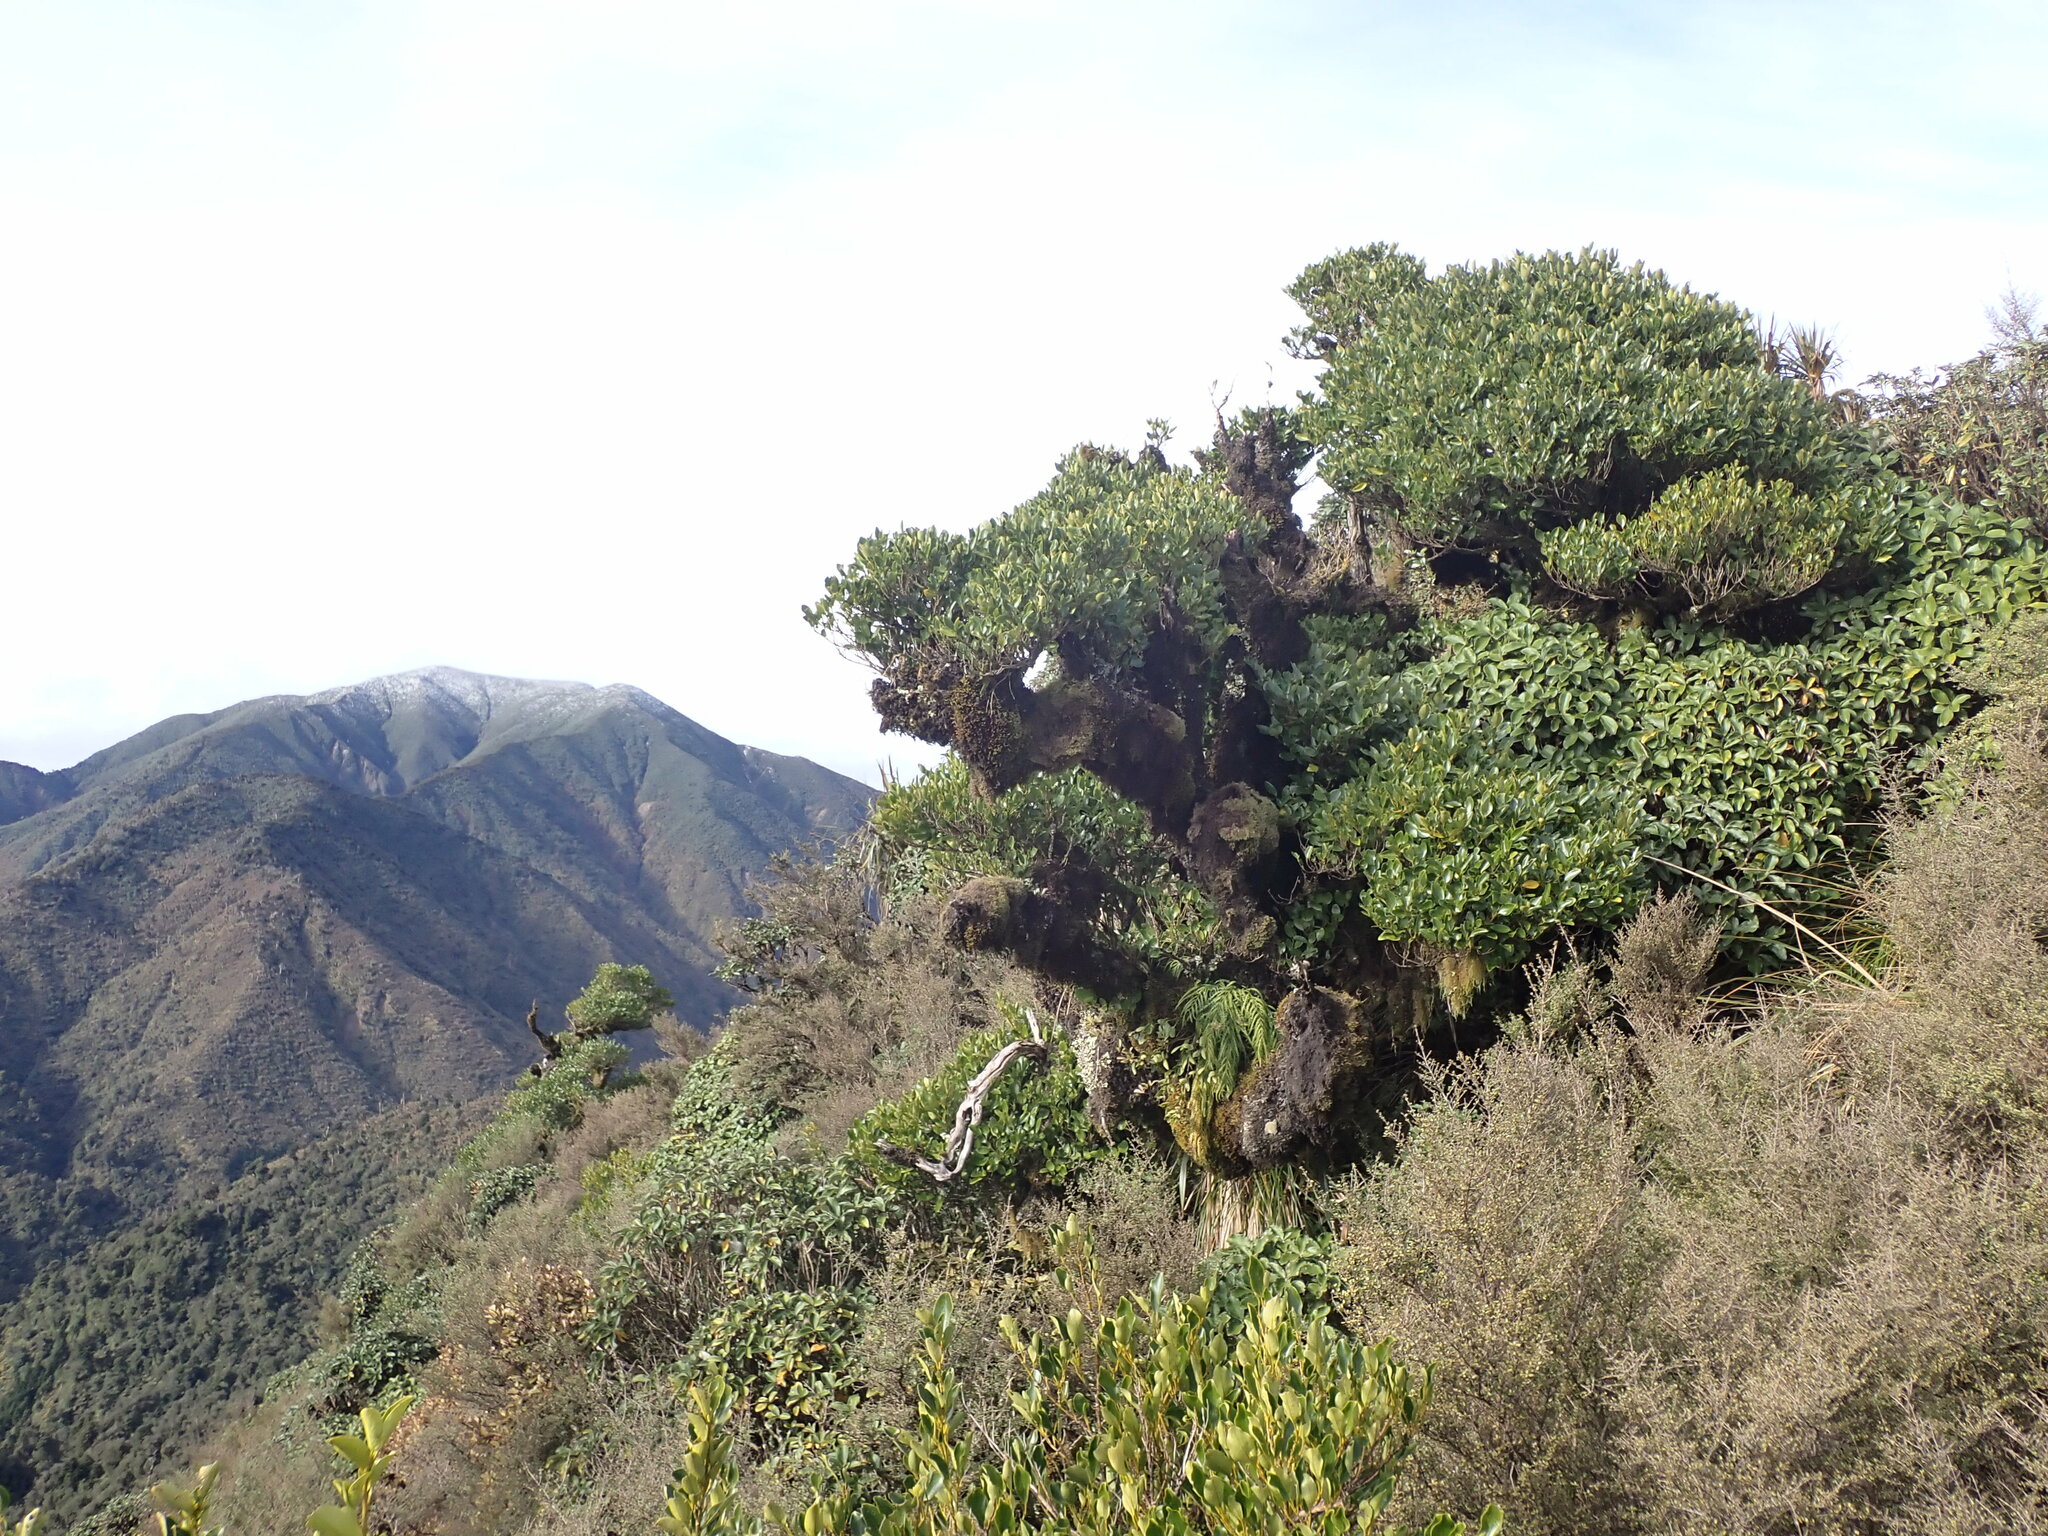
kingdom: Plantae
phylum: Tracheophyta
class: Magnoliopsida
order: Apiales
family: Griseliniaceae
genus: Griselinia
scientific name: Griselinia littoralis
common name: New zealand broadleaf
